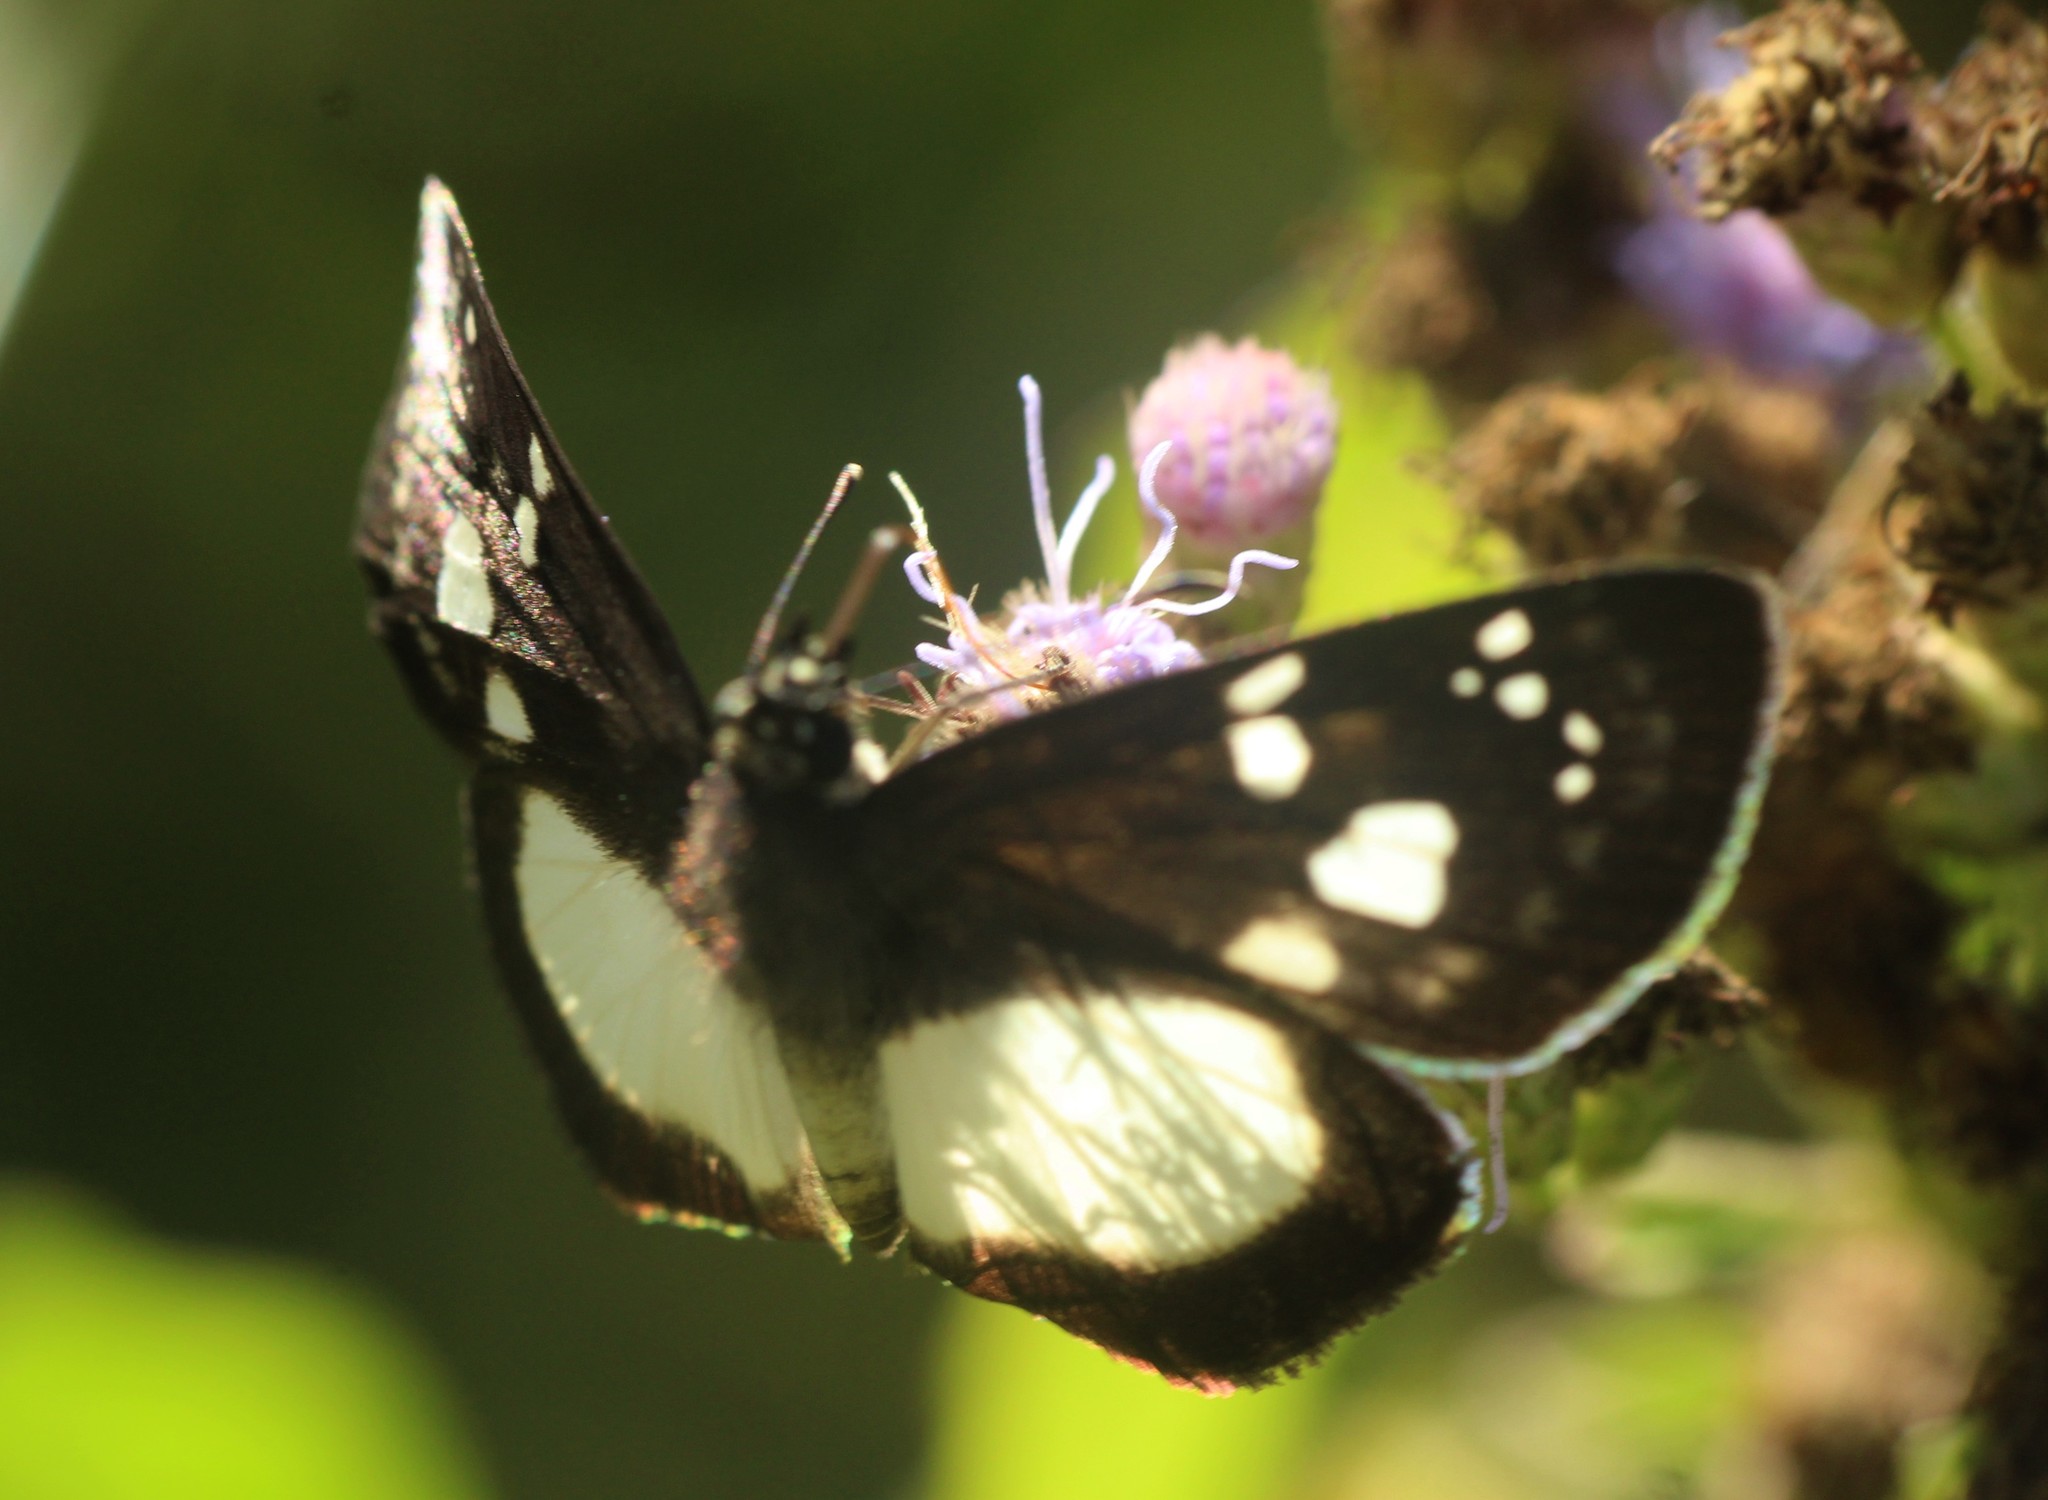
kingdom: Animalia
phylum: Arthropoda
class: Insecta
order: Lepidoptera
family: Hesperiidae
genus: Milanion
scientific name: Milanion leucaspis
